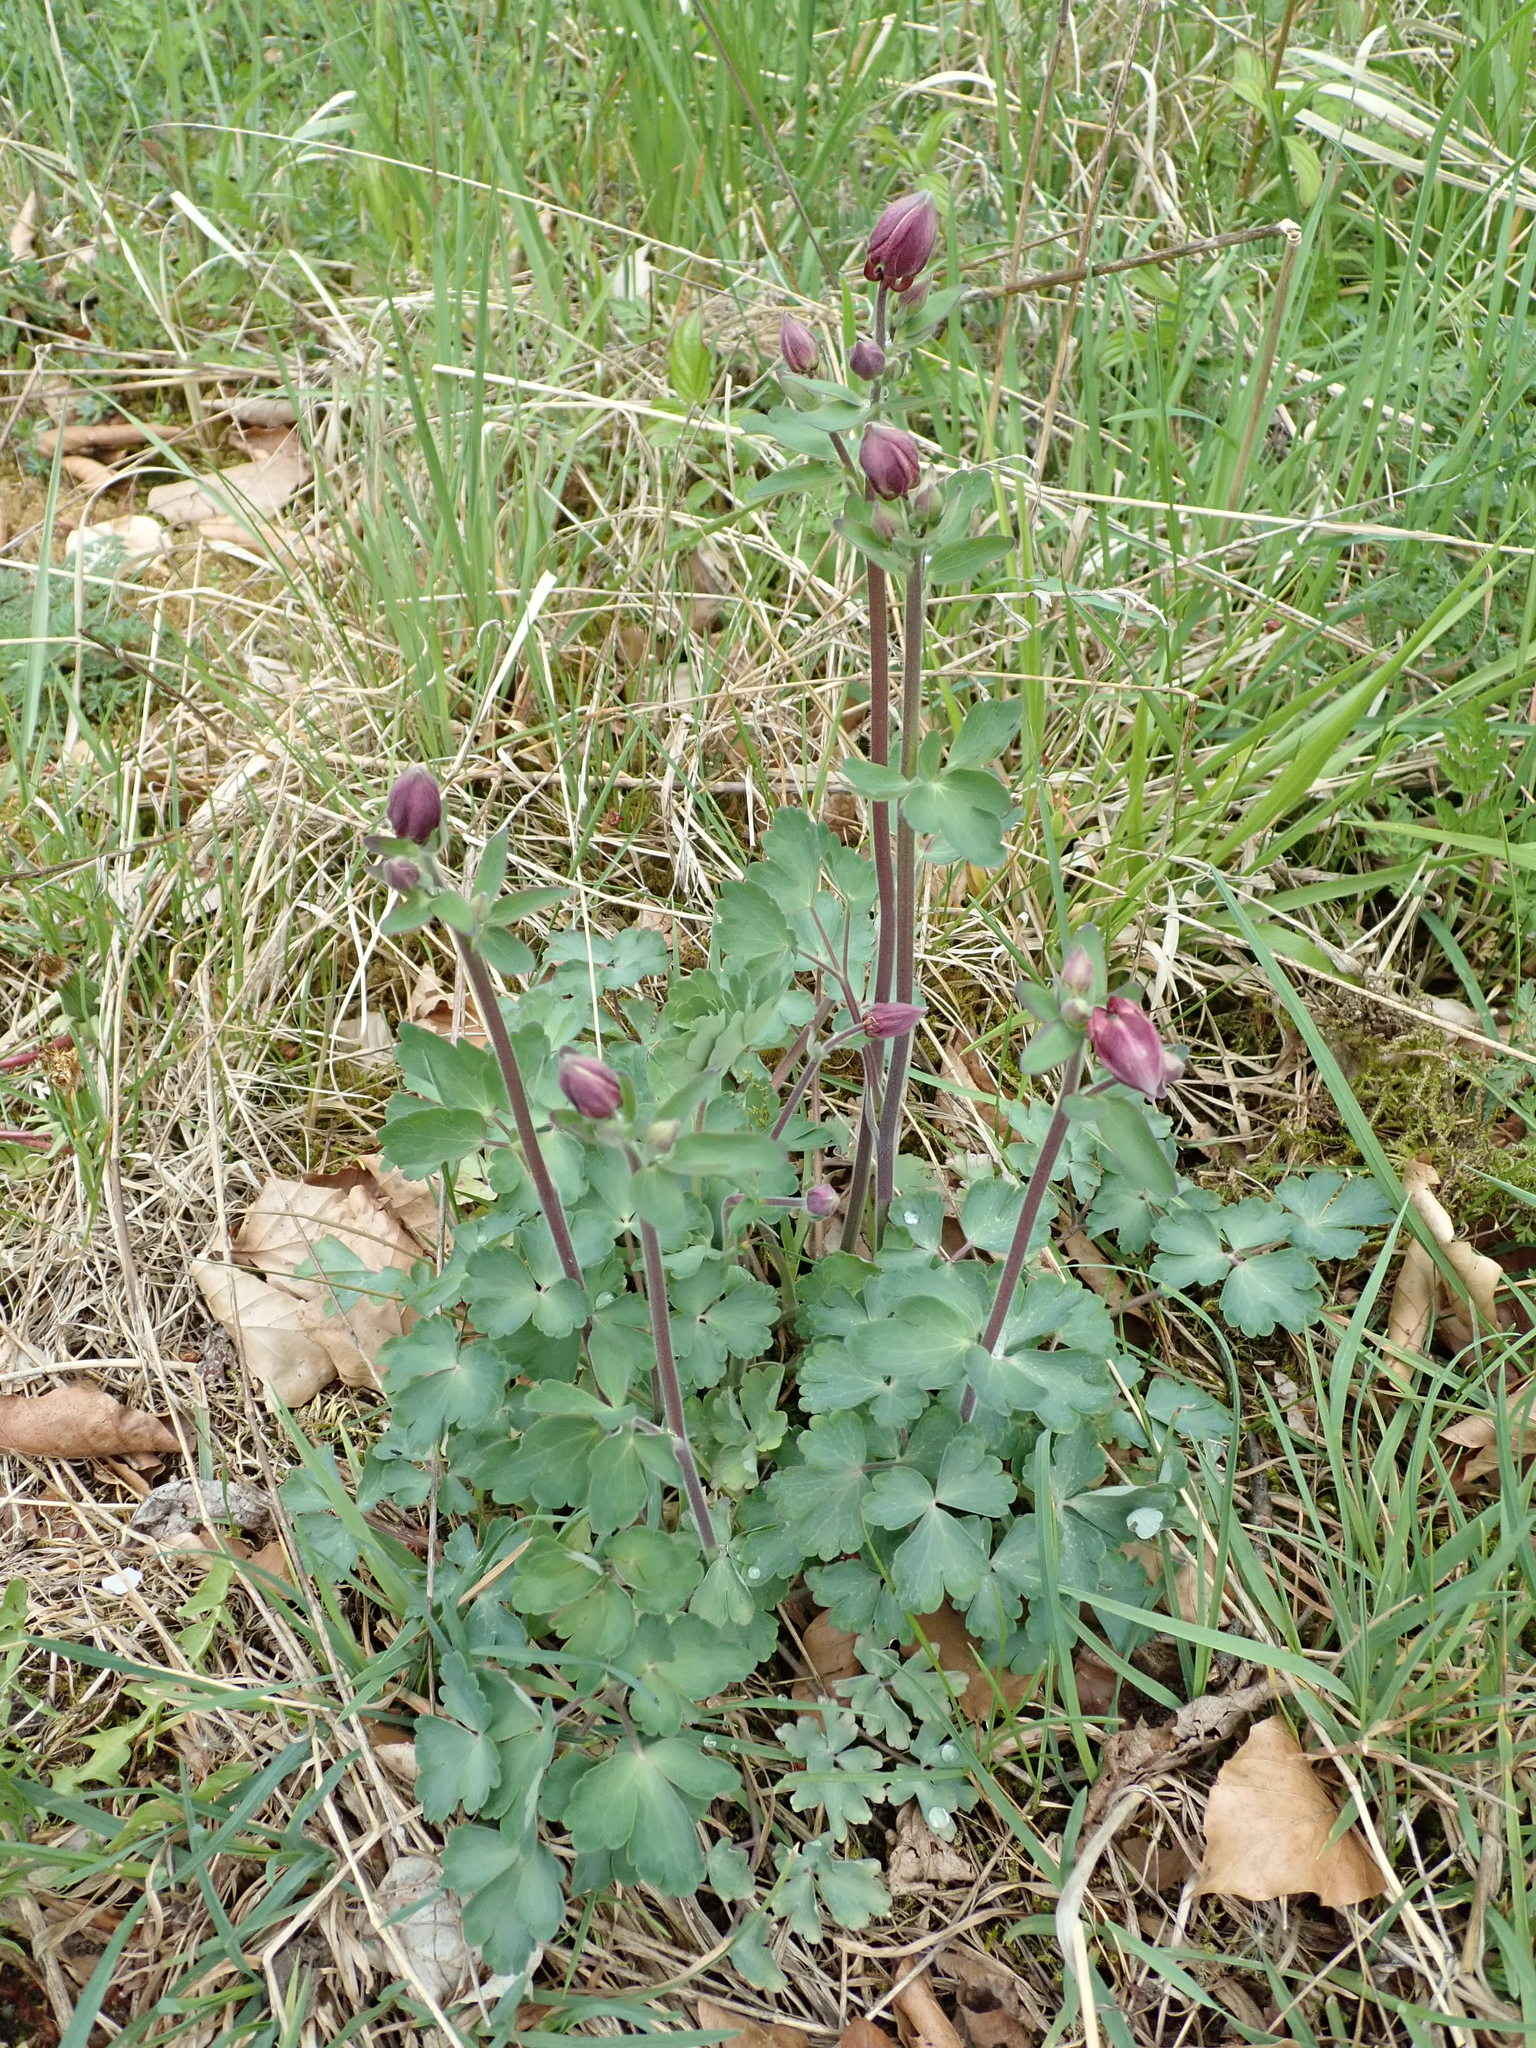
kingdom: Plantae
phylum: Tracheophyta
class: Magnoliopsida
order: Ranunculales
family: Ranunculaceae
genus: Aquilegia
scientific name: Aquilegia vulgaris
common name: Columbine
